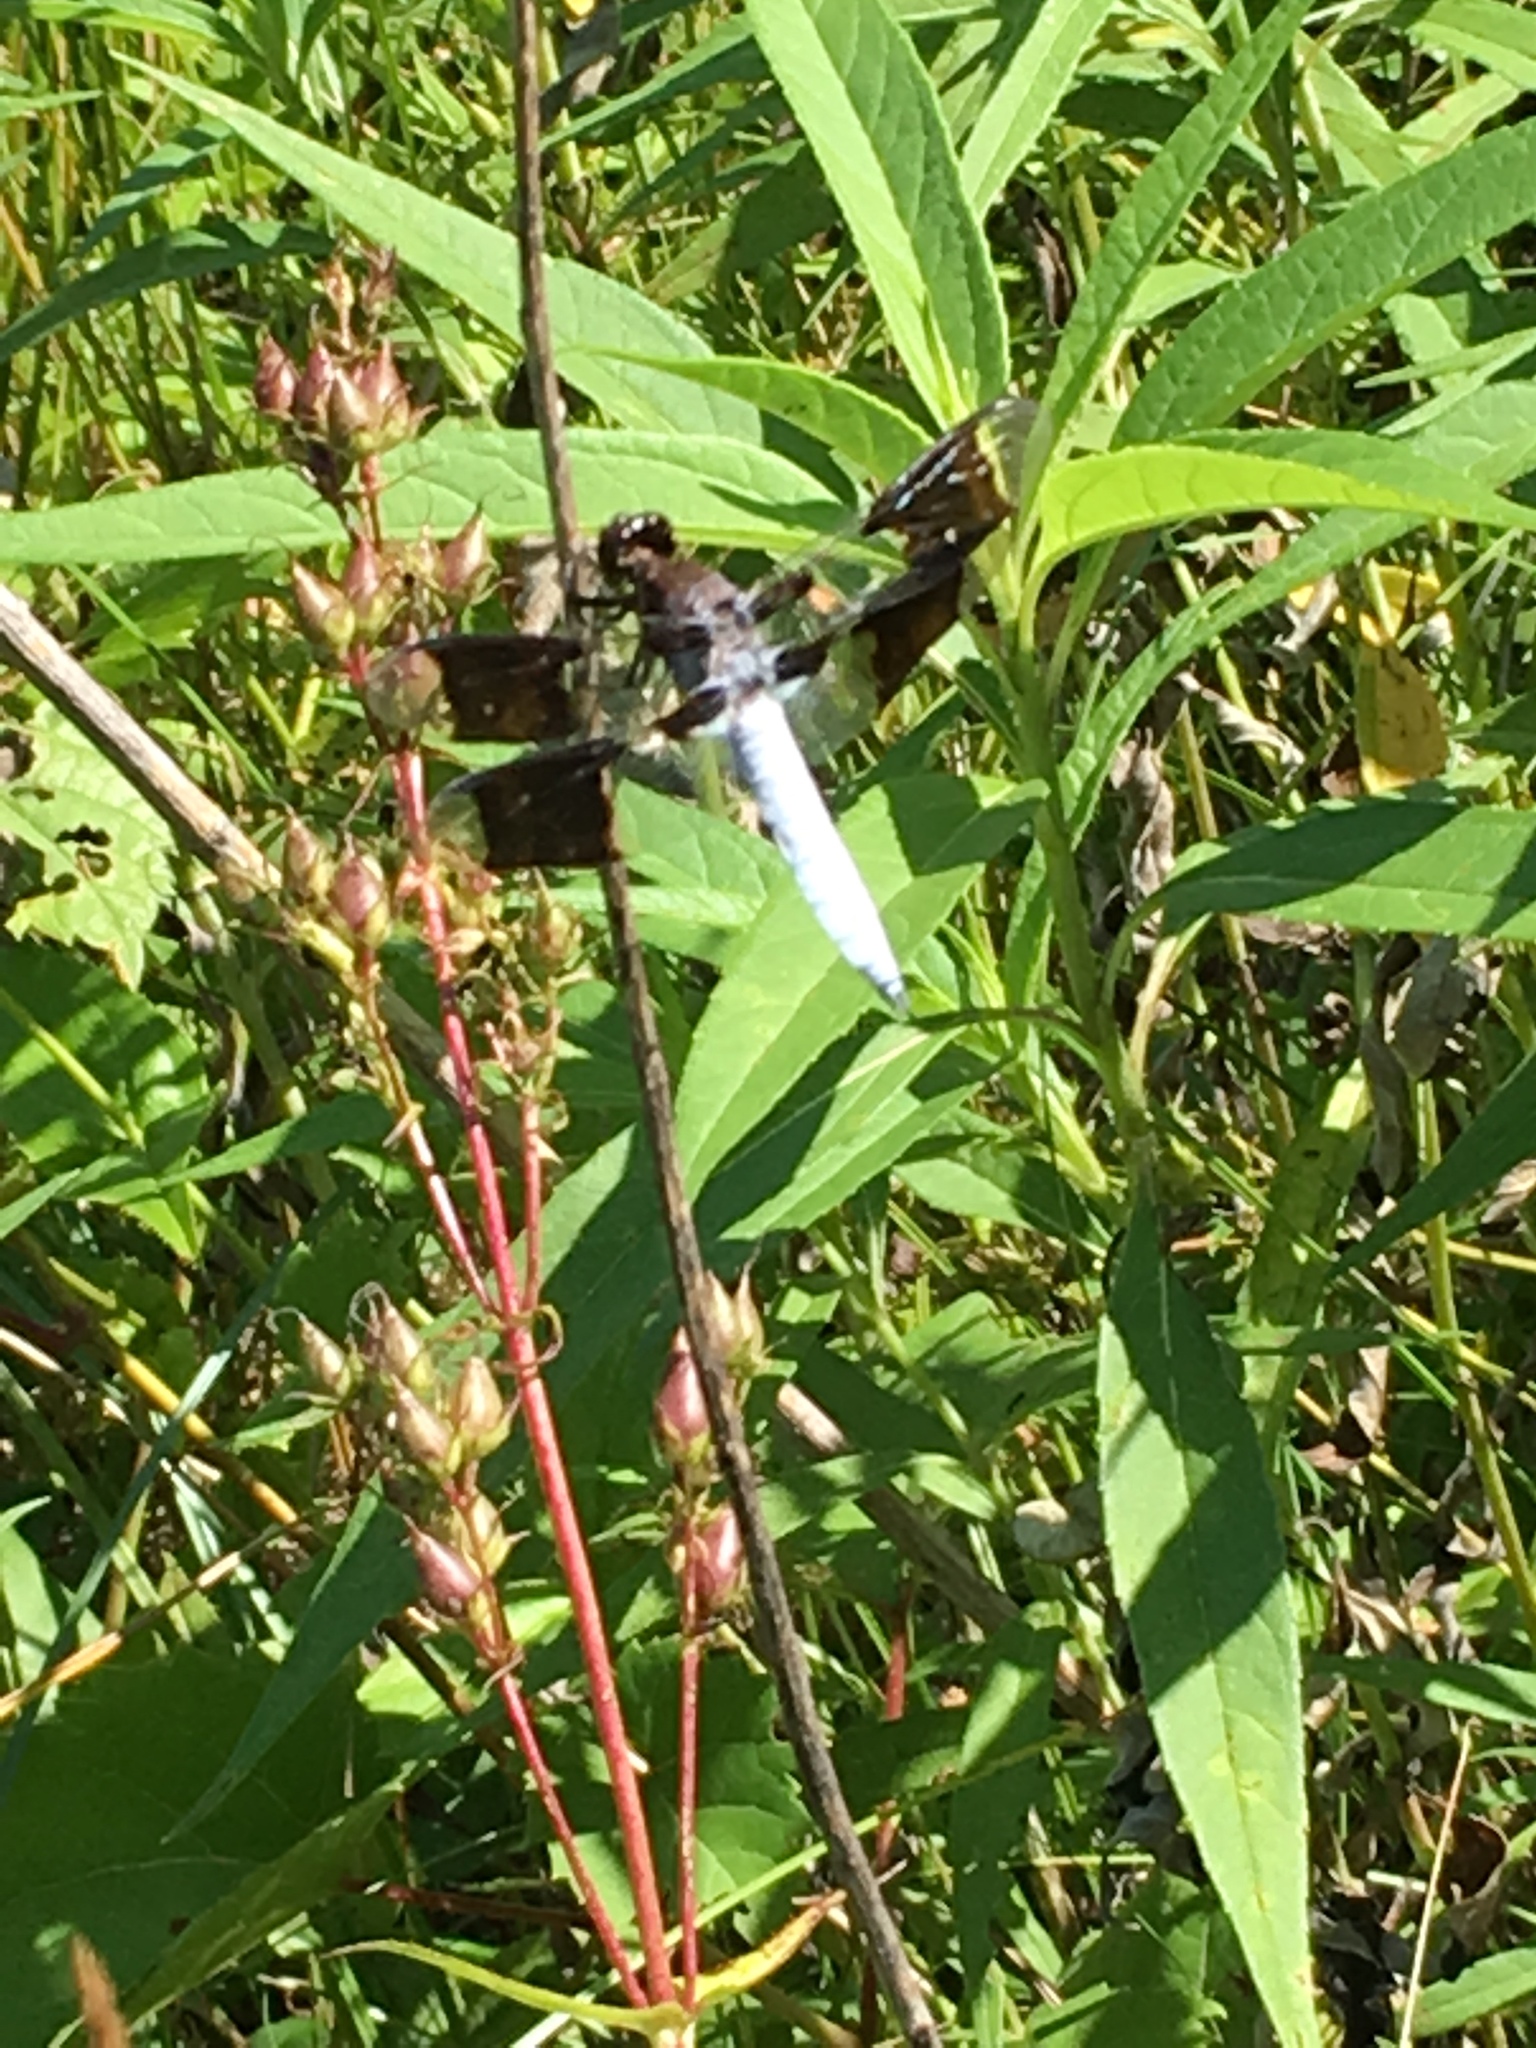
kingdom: Animalia
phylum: Arthropoda
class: Insecta
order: Odonata
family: Libellulidae
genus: Plathemis
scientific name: Plathemis lydia
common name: Common whitetail
